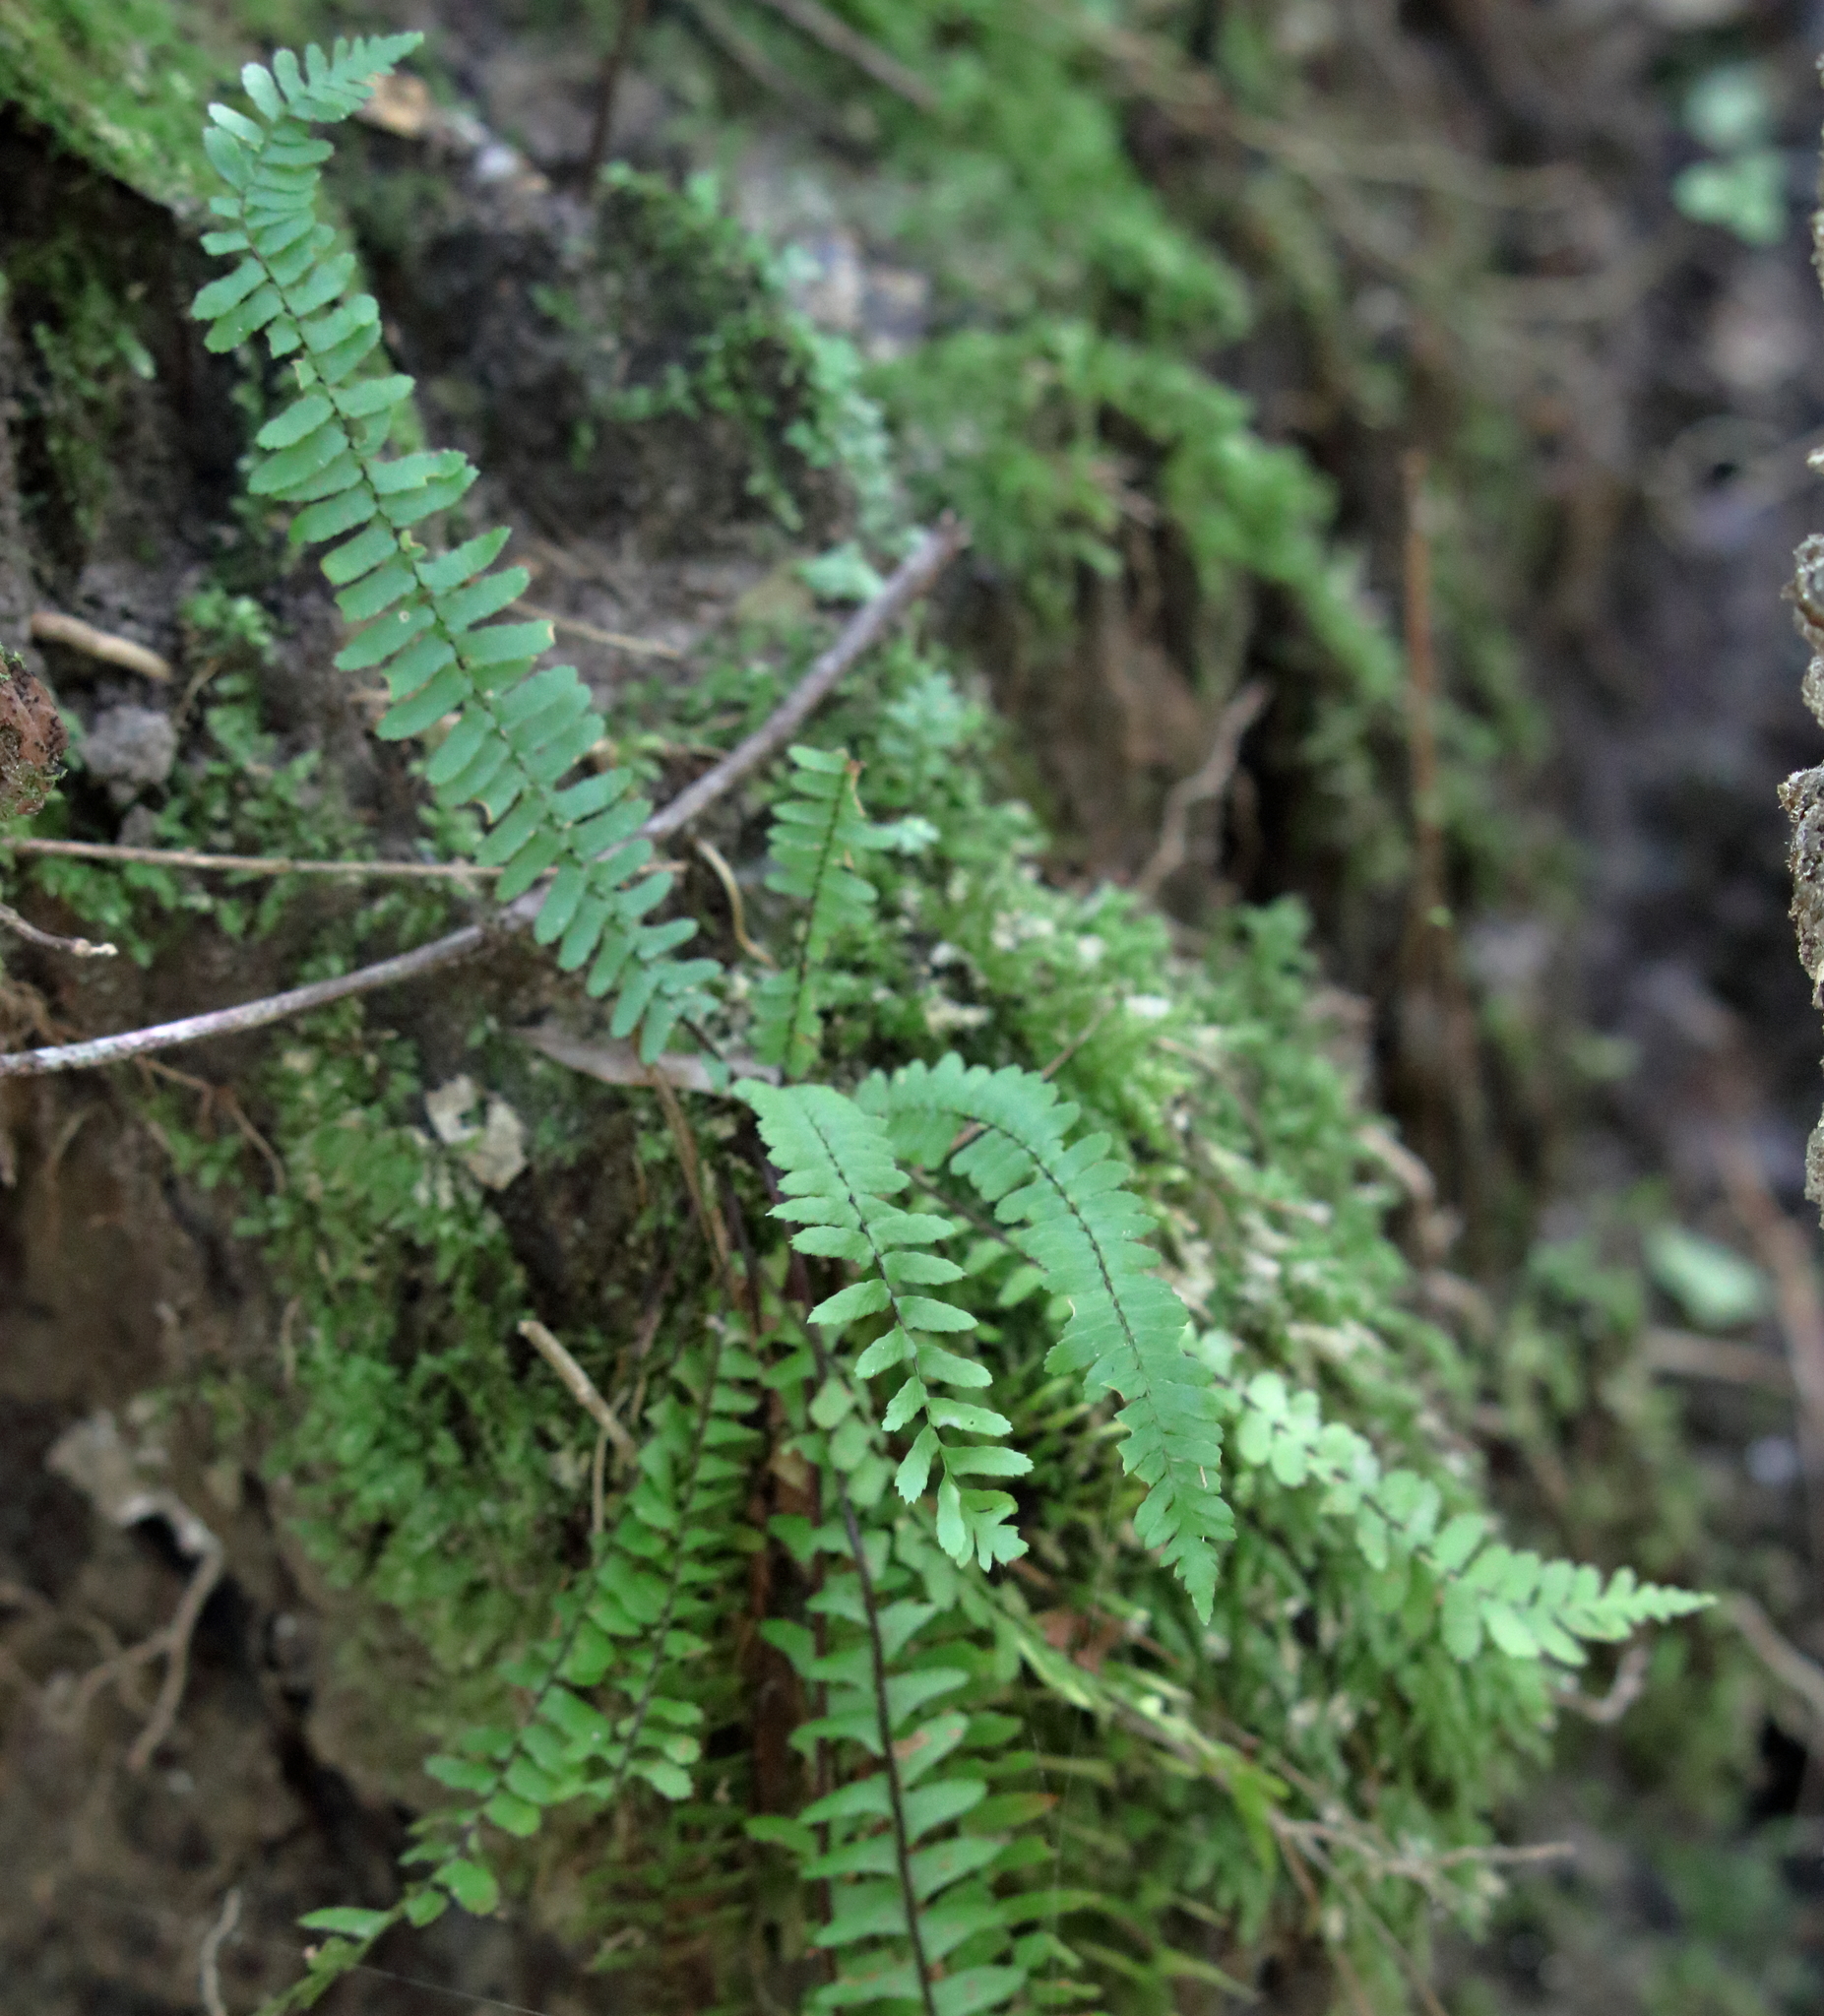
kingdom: Plantae
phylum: Tracheophyta
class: Polypodiopsida
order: Polypodiales
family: Aspleniaceae
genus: Asplenium
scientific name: Asplenium platyneuron
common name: Ebony spleenwort
